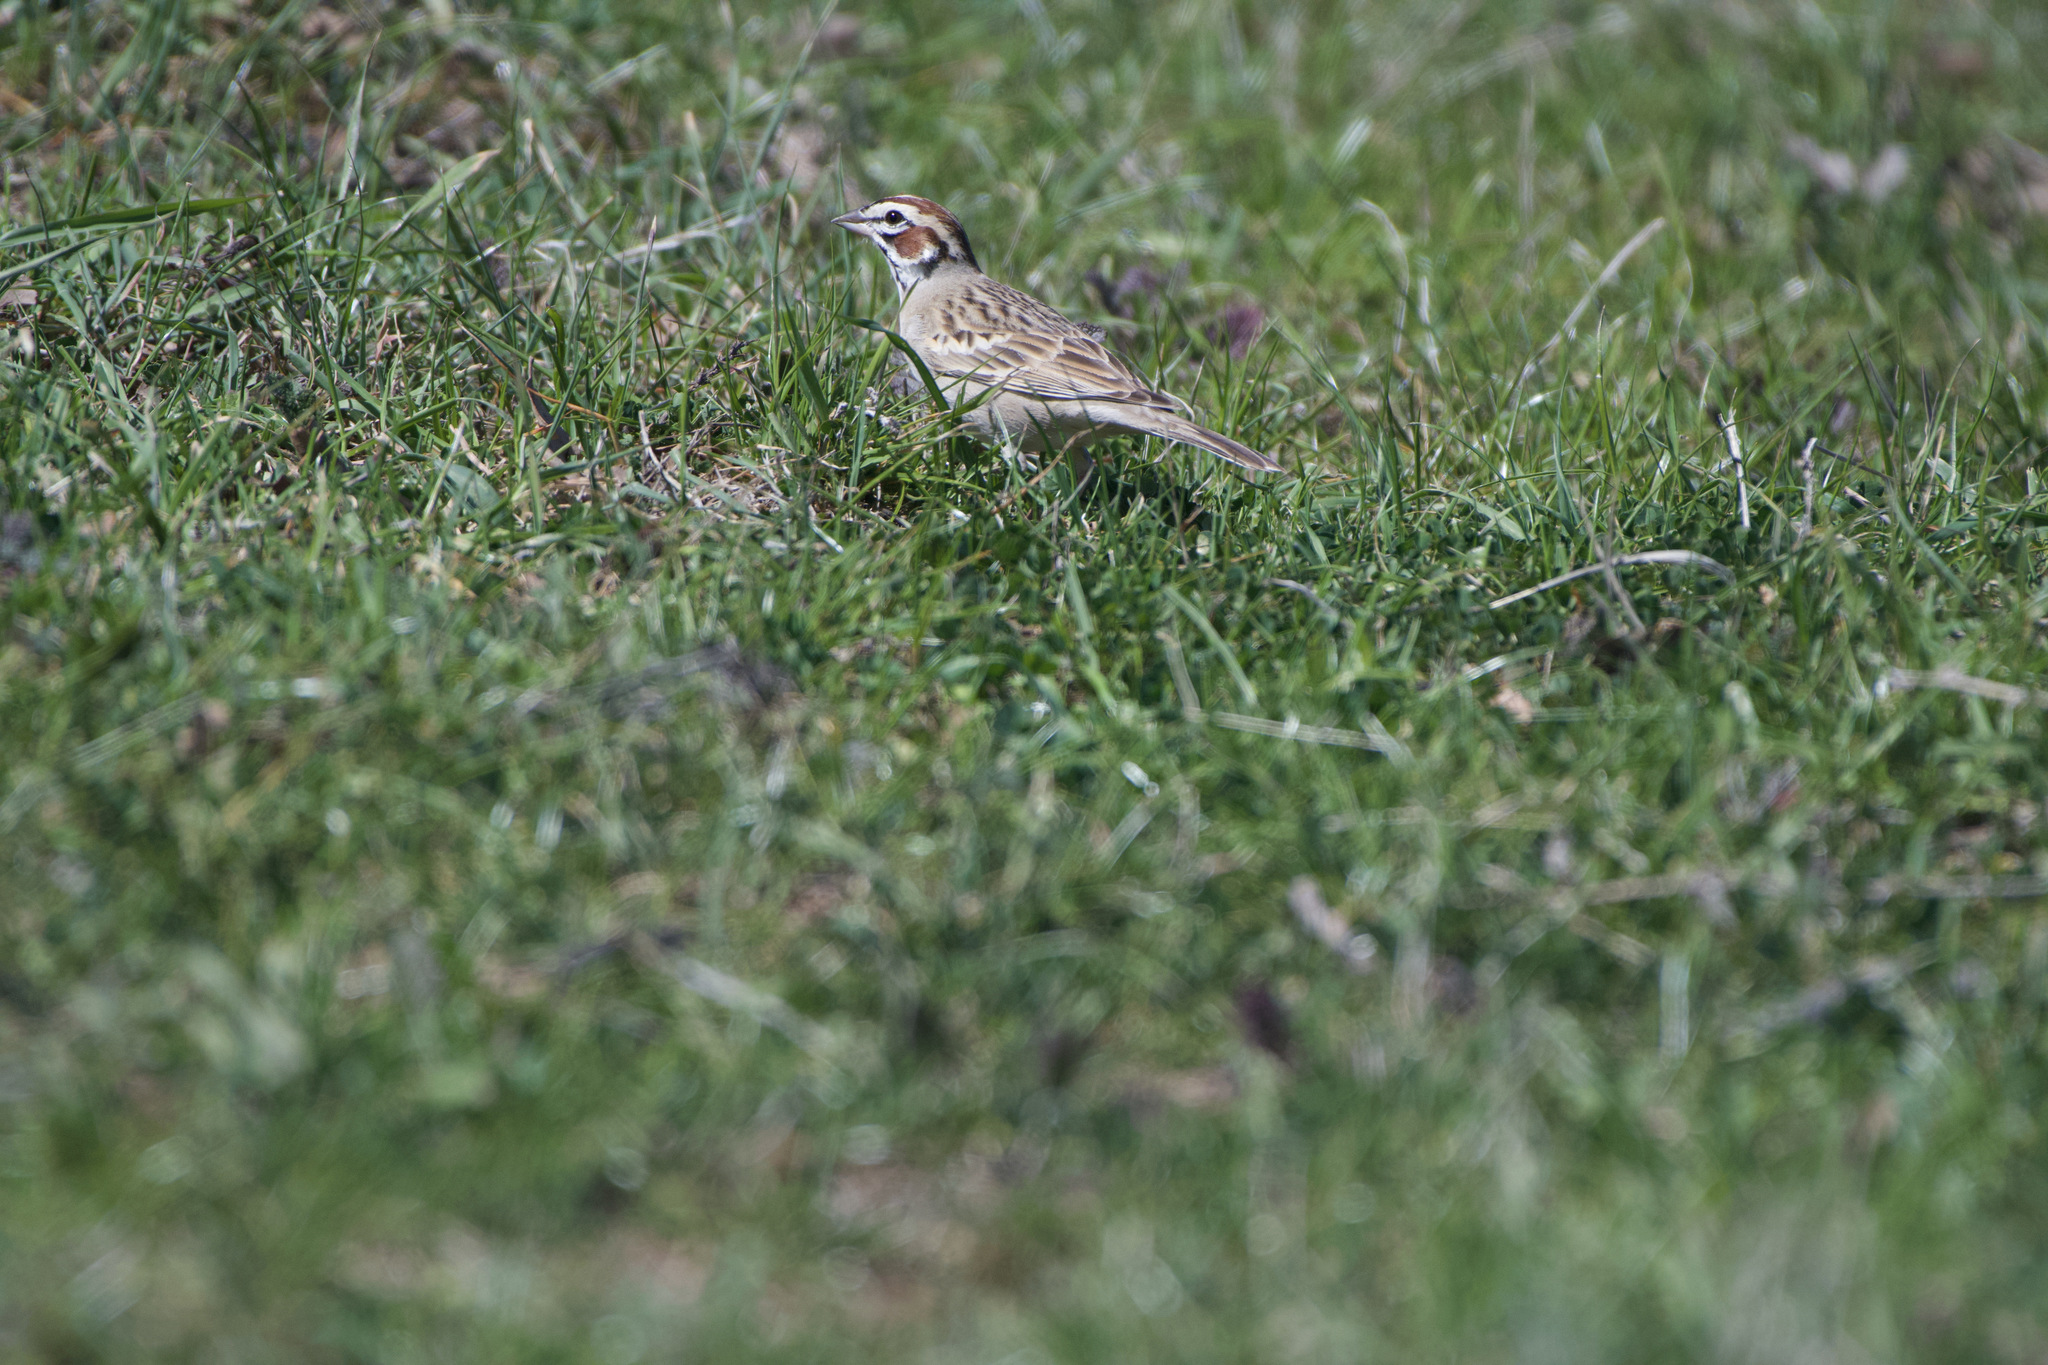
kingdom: Animalia
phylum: Chordata
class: Aves
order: Passeriformes
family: Passerellidae
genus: Chondestes
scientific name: Chondestes grammacus
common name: Lark sparrow
